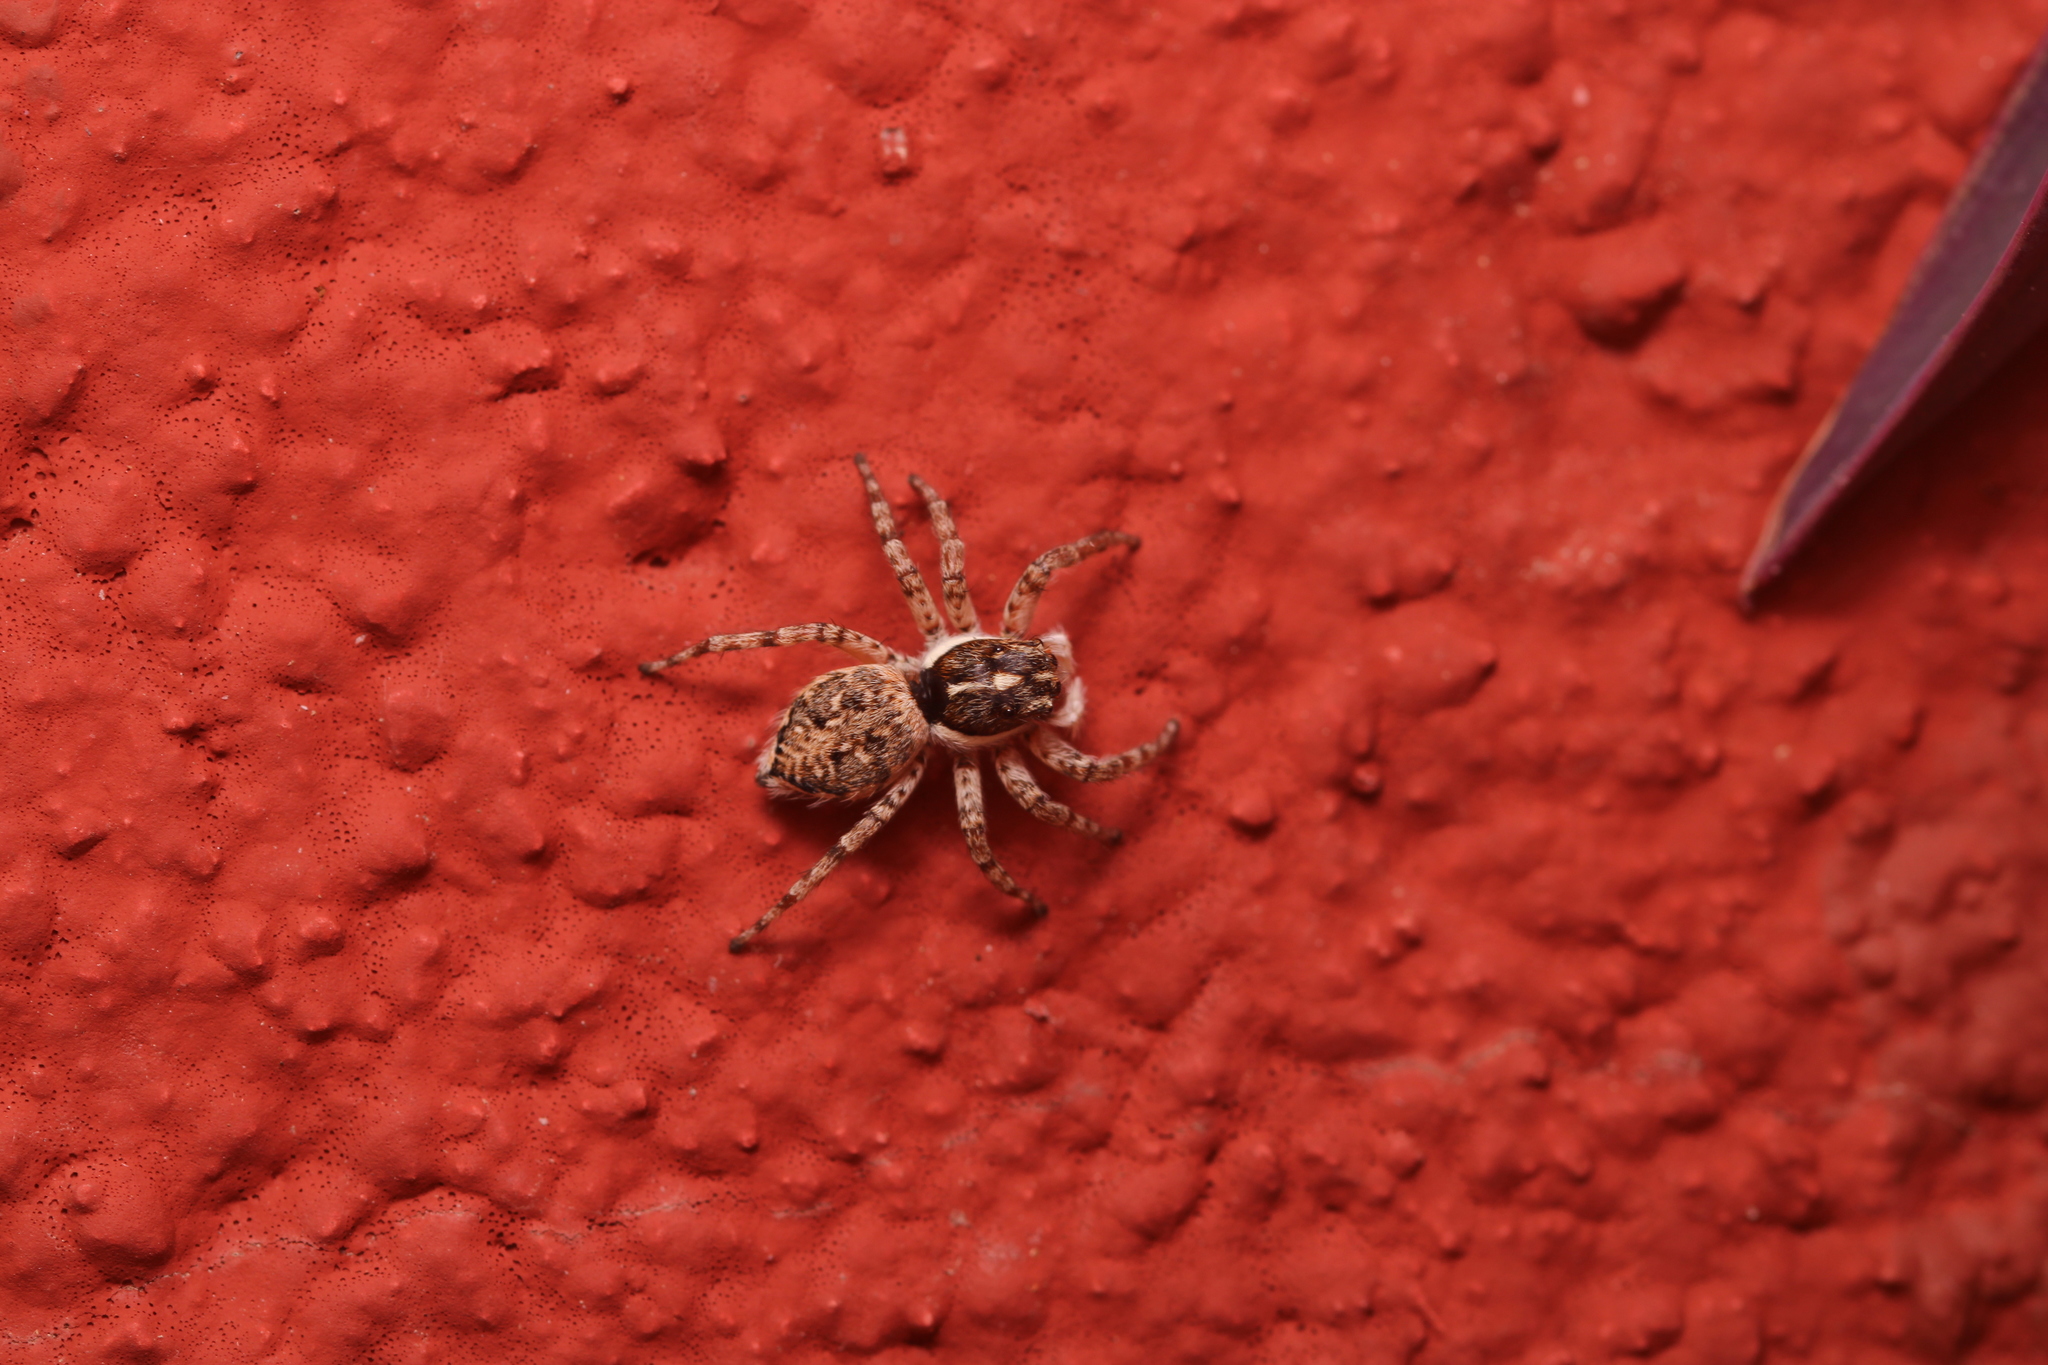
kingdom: Animalia
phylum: Arthropoda
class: Arachnida
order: Araneae
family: Salticidae
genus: Menemerus
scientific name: Menemerus semilimbatus
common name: Jumping spider
